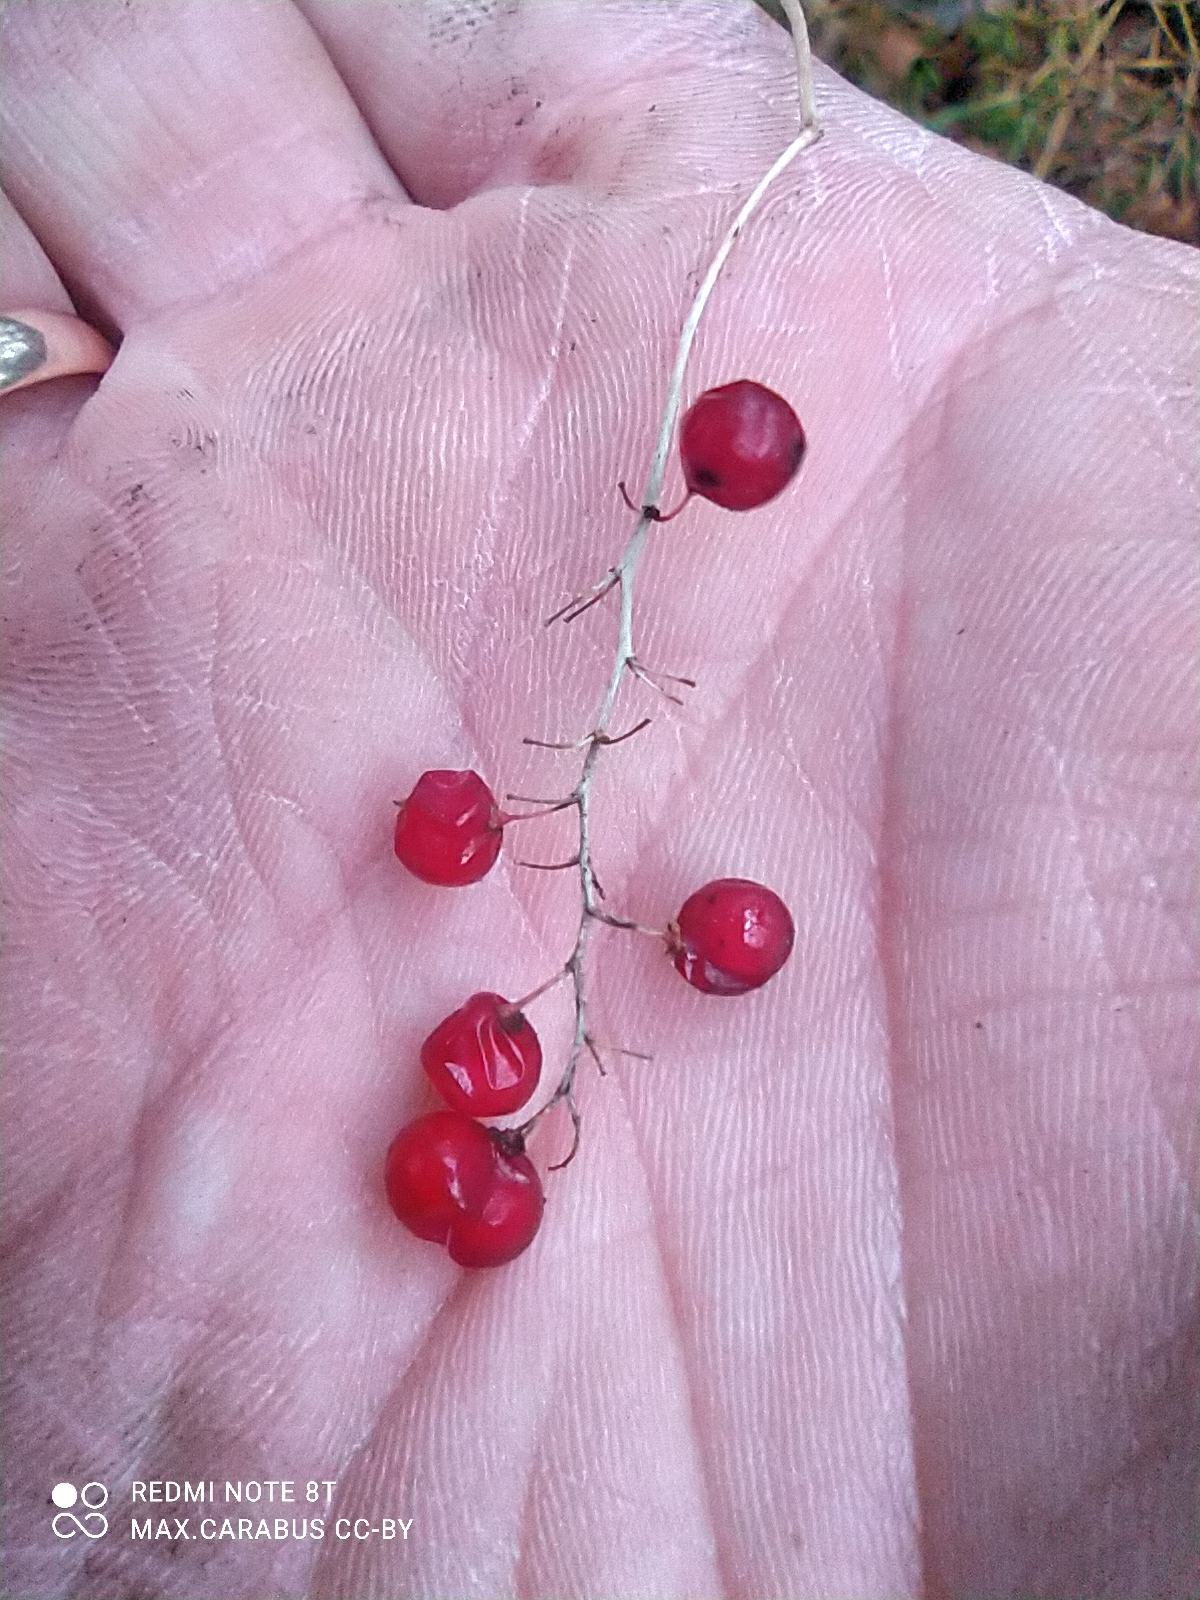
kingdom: Plantae
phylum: Tracheophyta
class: Liliopsida
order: Asparagales
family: Asparagaceae
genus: Maianthemum
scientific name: Maianthemum bifolium
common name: May lily
